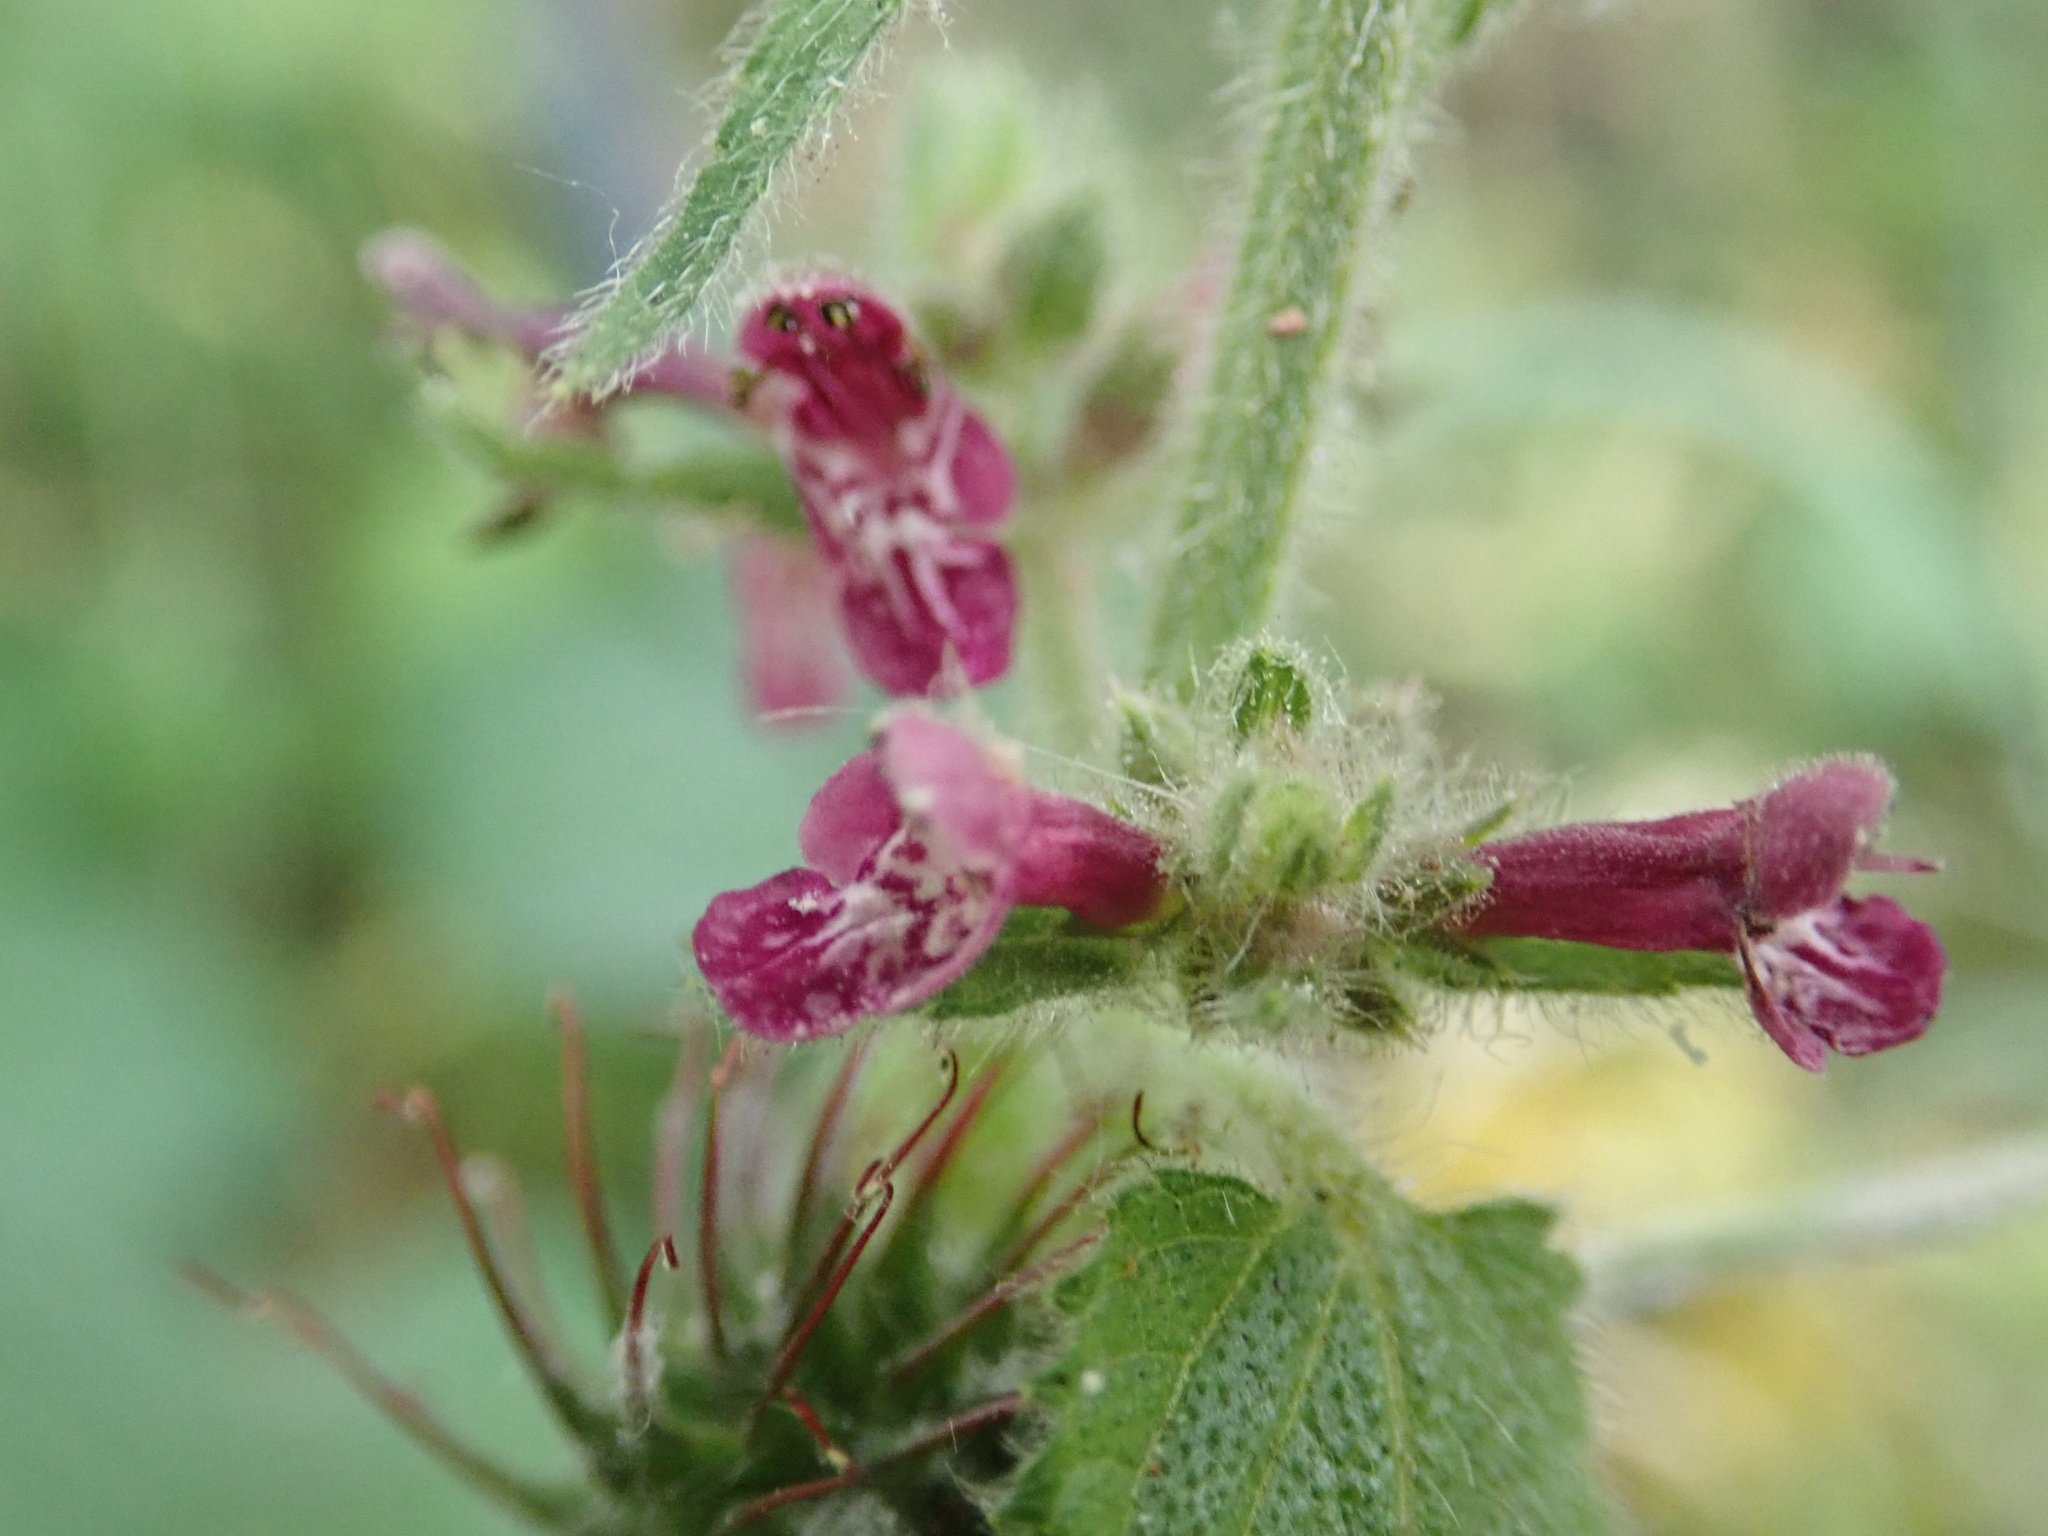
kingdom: Plantae
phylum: Tracheophyta
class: Magnoliopsida
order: Lamiales
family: Lamiaceae
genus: Stachys
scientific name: Stachys sylvatica
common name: Hedge woundwort
